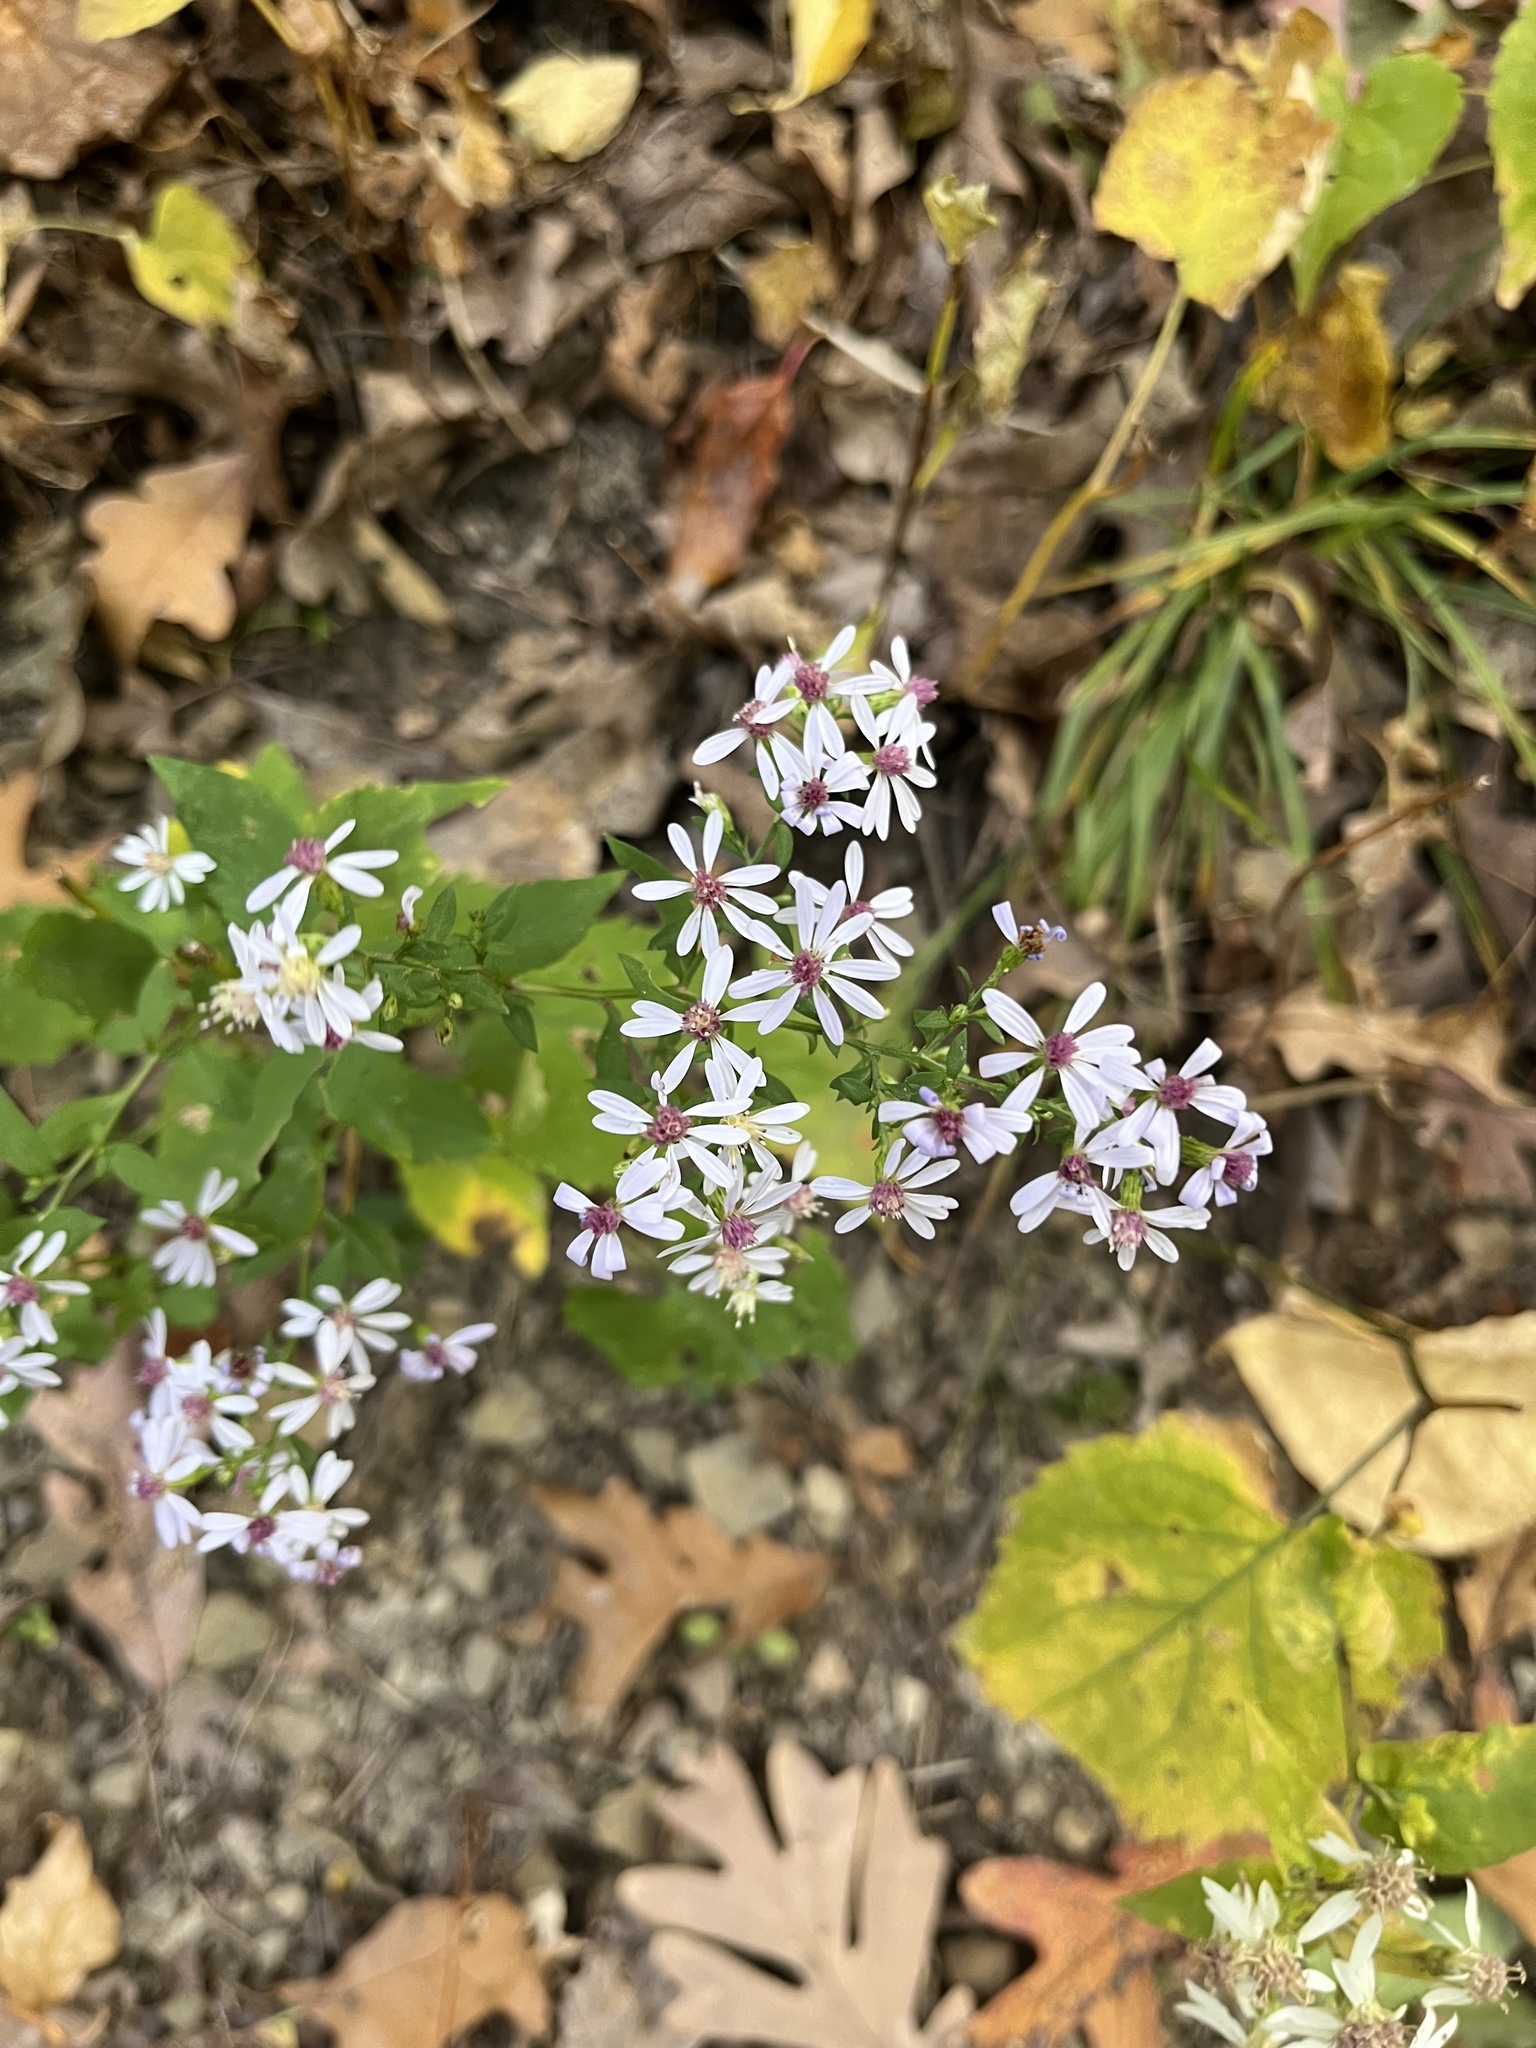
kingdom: Plantae
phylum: Tracheophyta
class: Magnoliopsida
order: Asterales
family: Asteraceae
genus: Symphyotrichum
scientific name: Symphyotrichum cordifolium
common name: Beeweed
